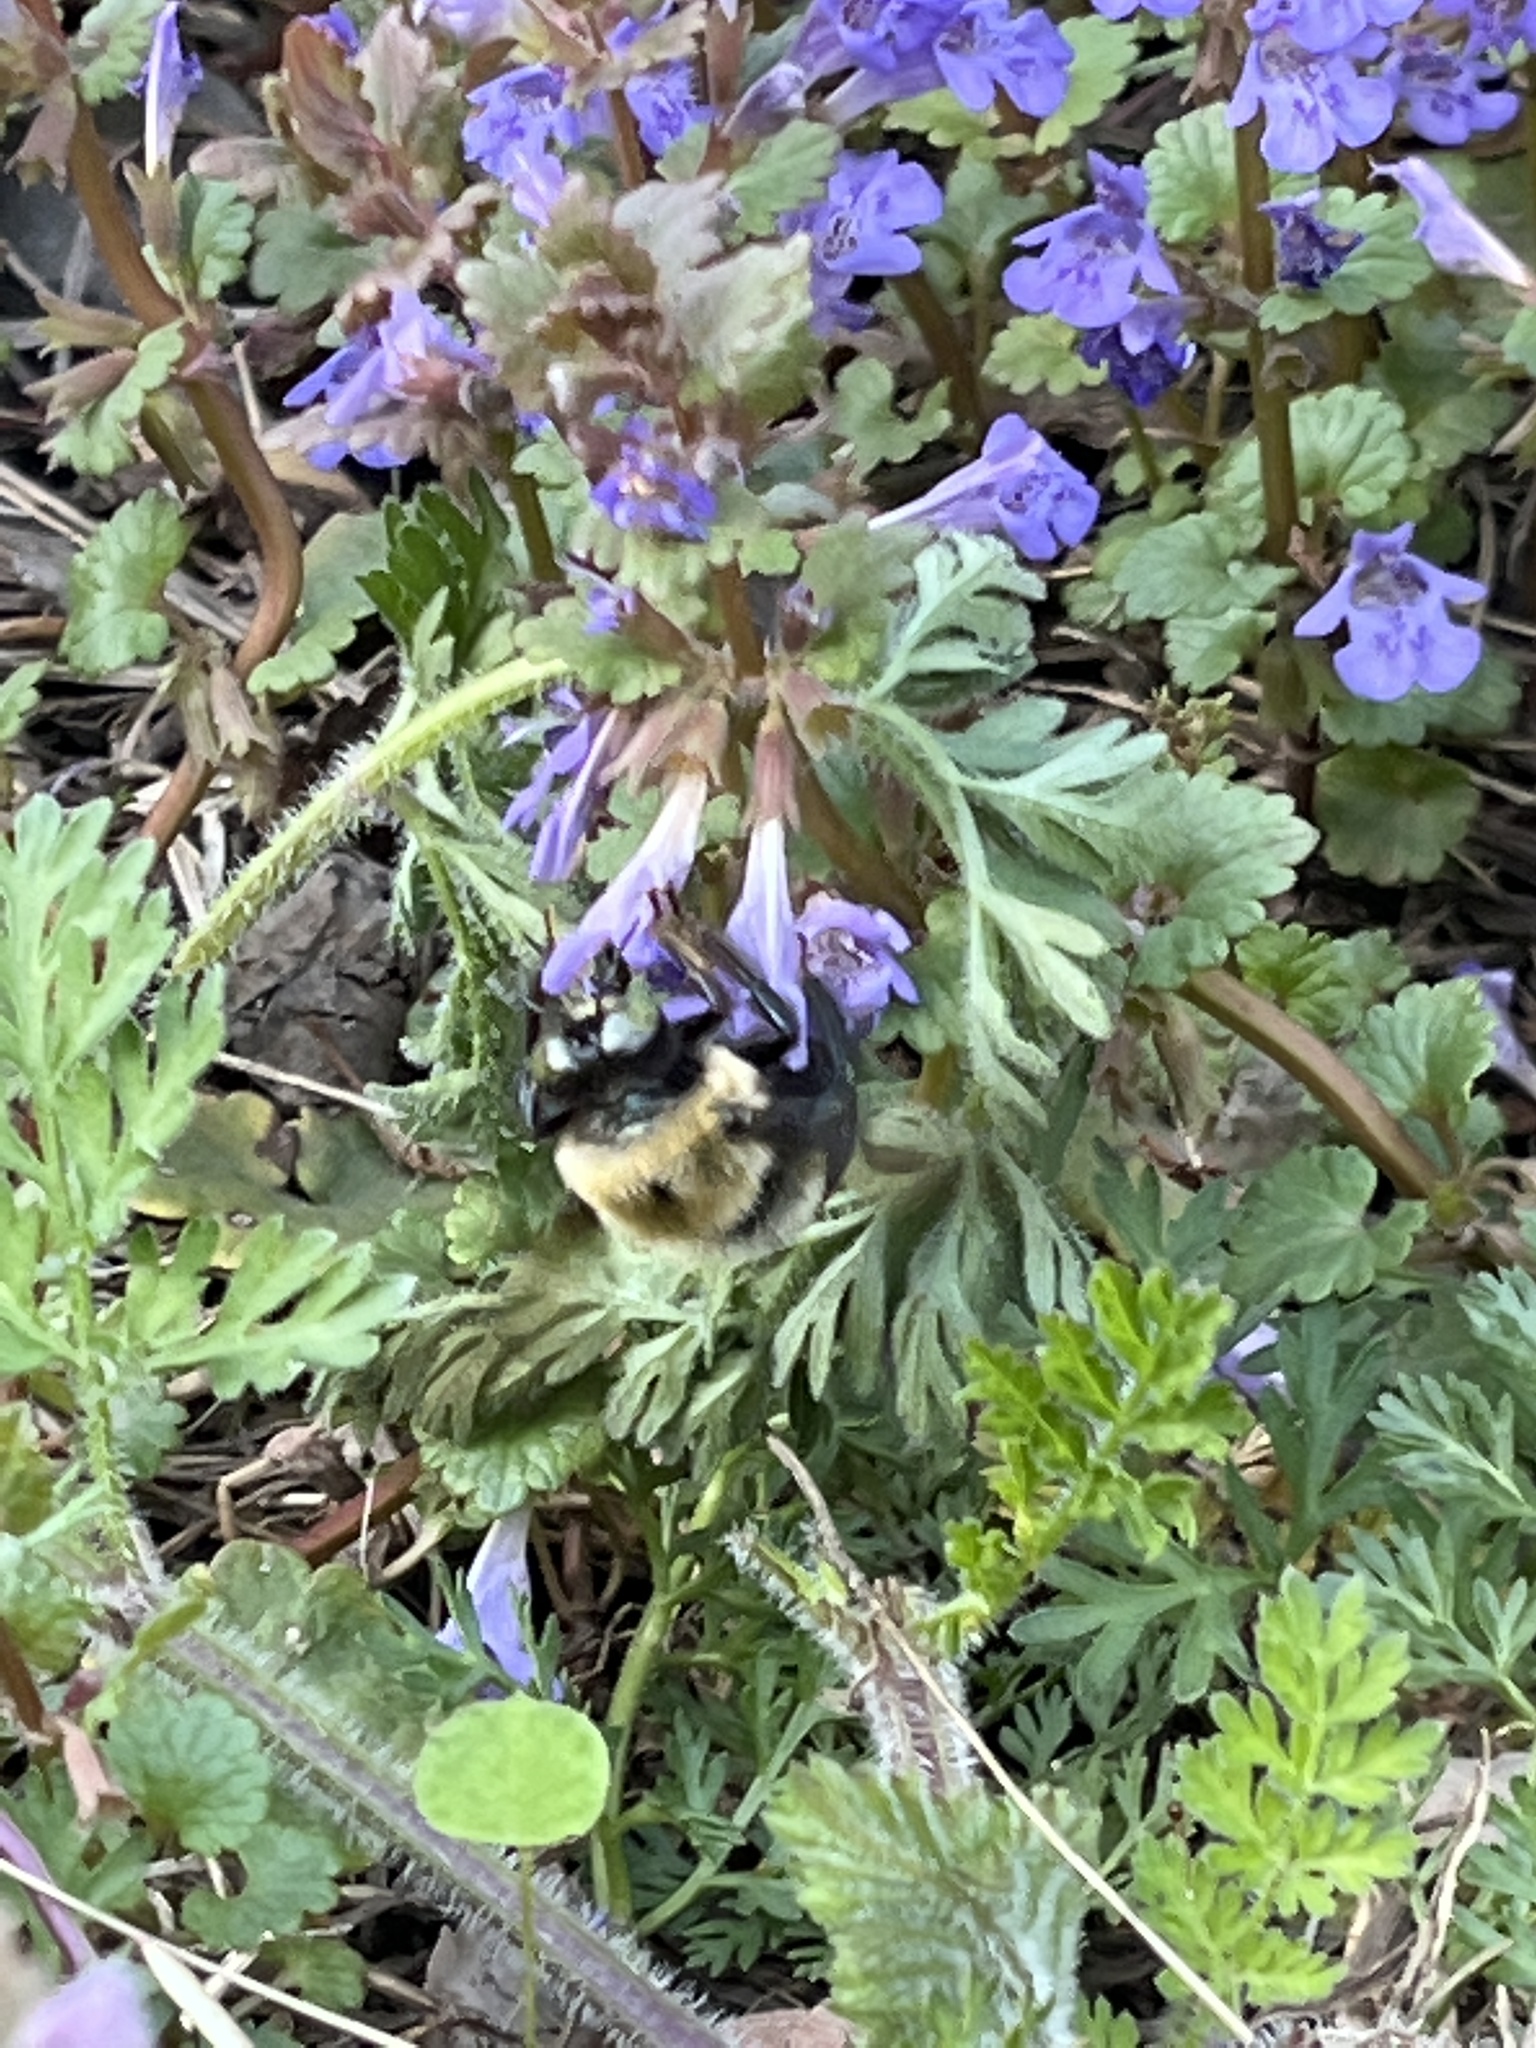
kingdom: Animalia
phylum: Arthropoda
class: Insecta
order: Hymenoptera
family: Apidae
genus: Xylocopa
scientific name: Xylocopa virginica
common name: Carpenter bee
